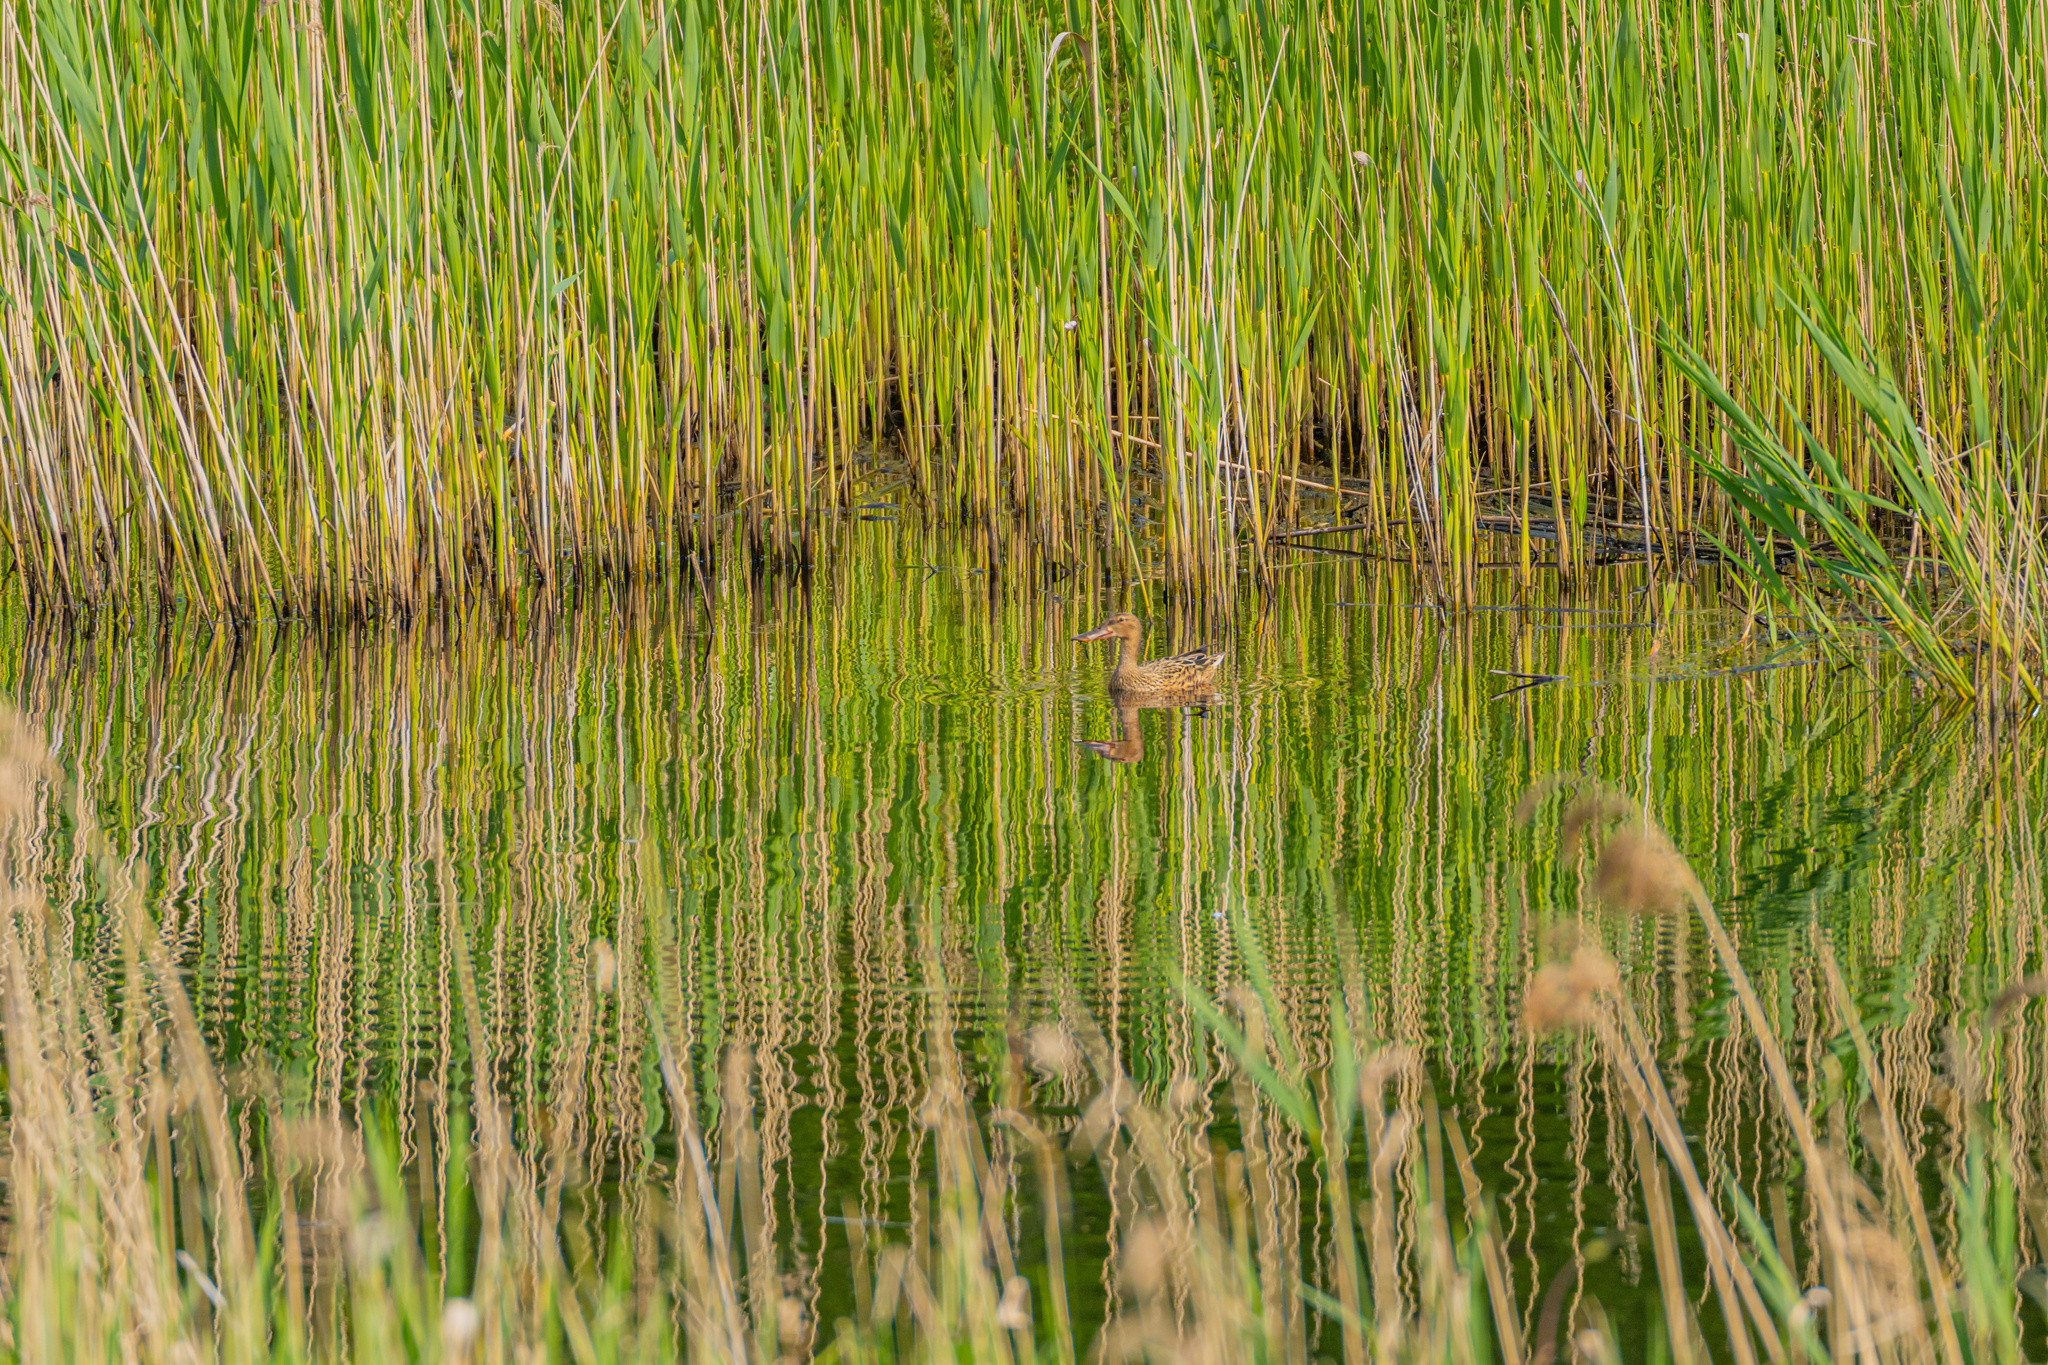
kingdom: Animalia
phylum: Chordata
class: Aves
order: Anseriformes
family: Anatidae
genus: Spatula
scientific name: Spatula clypeata
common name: Northern shoveler
